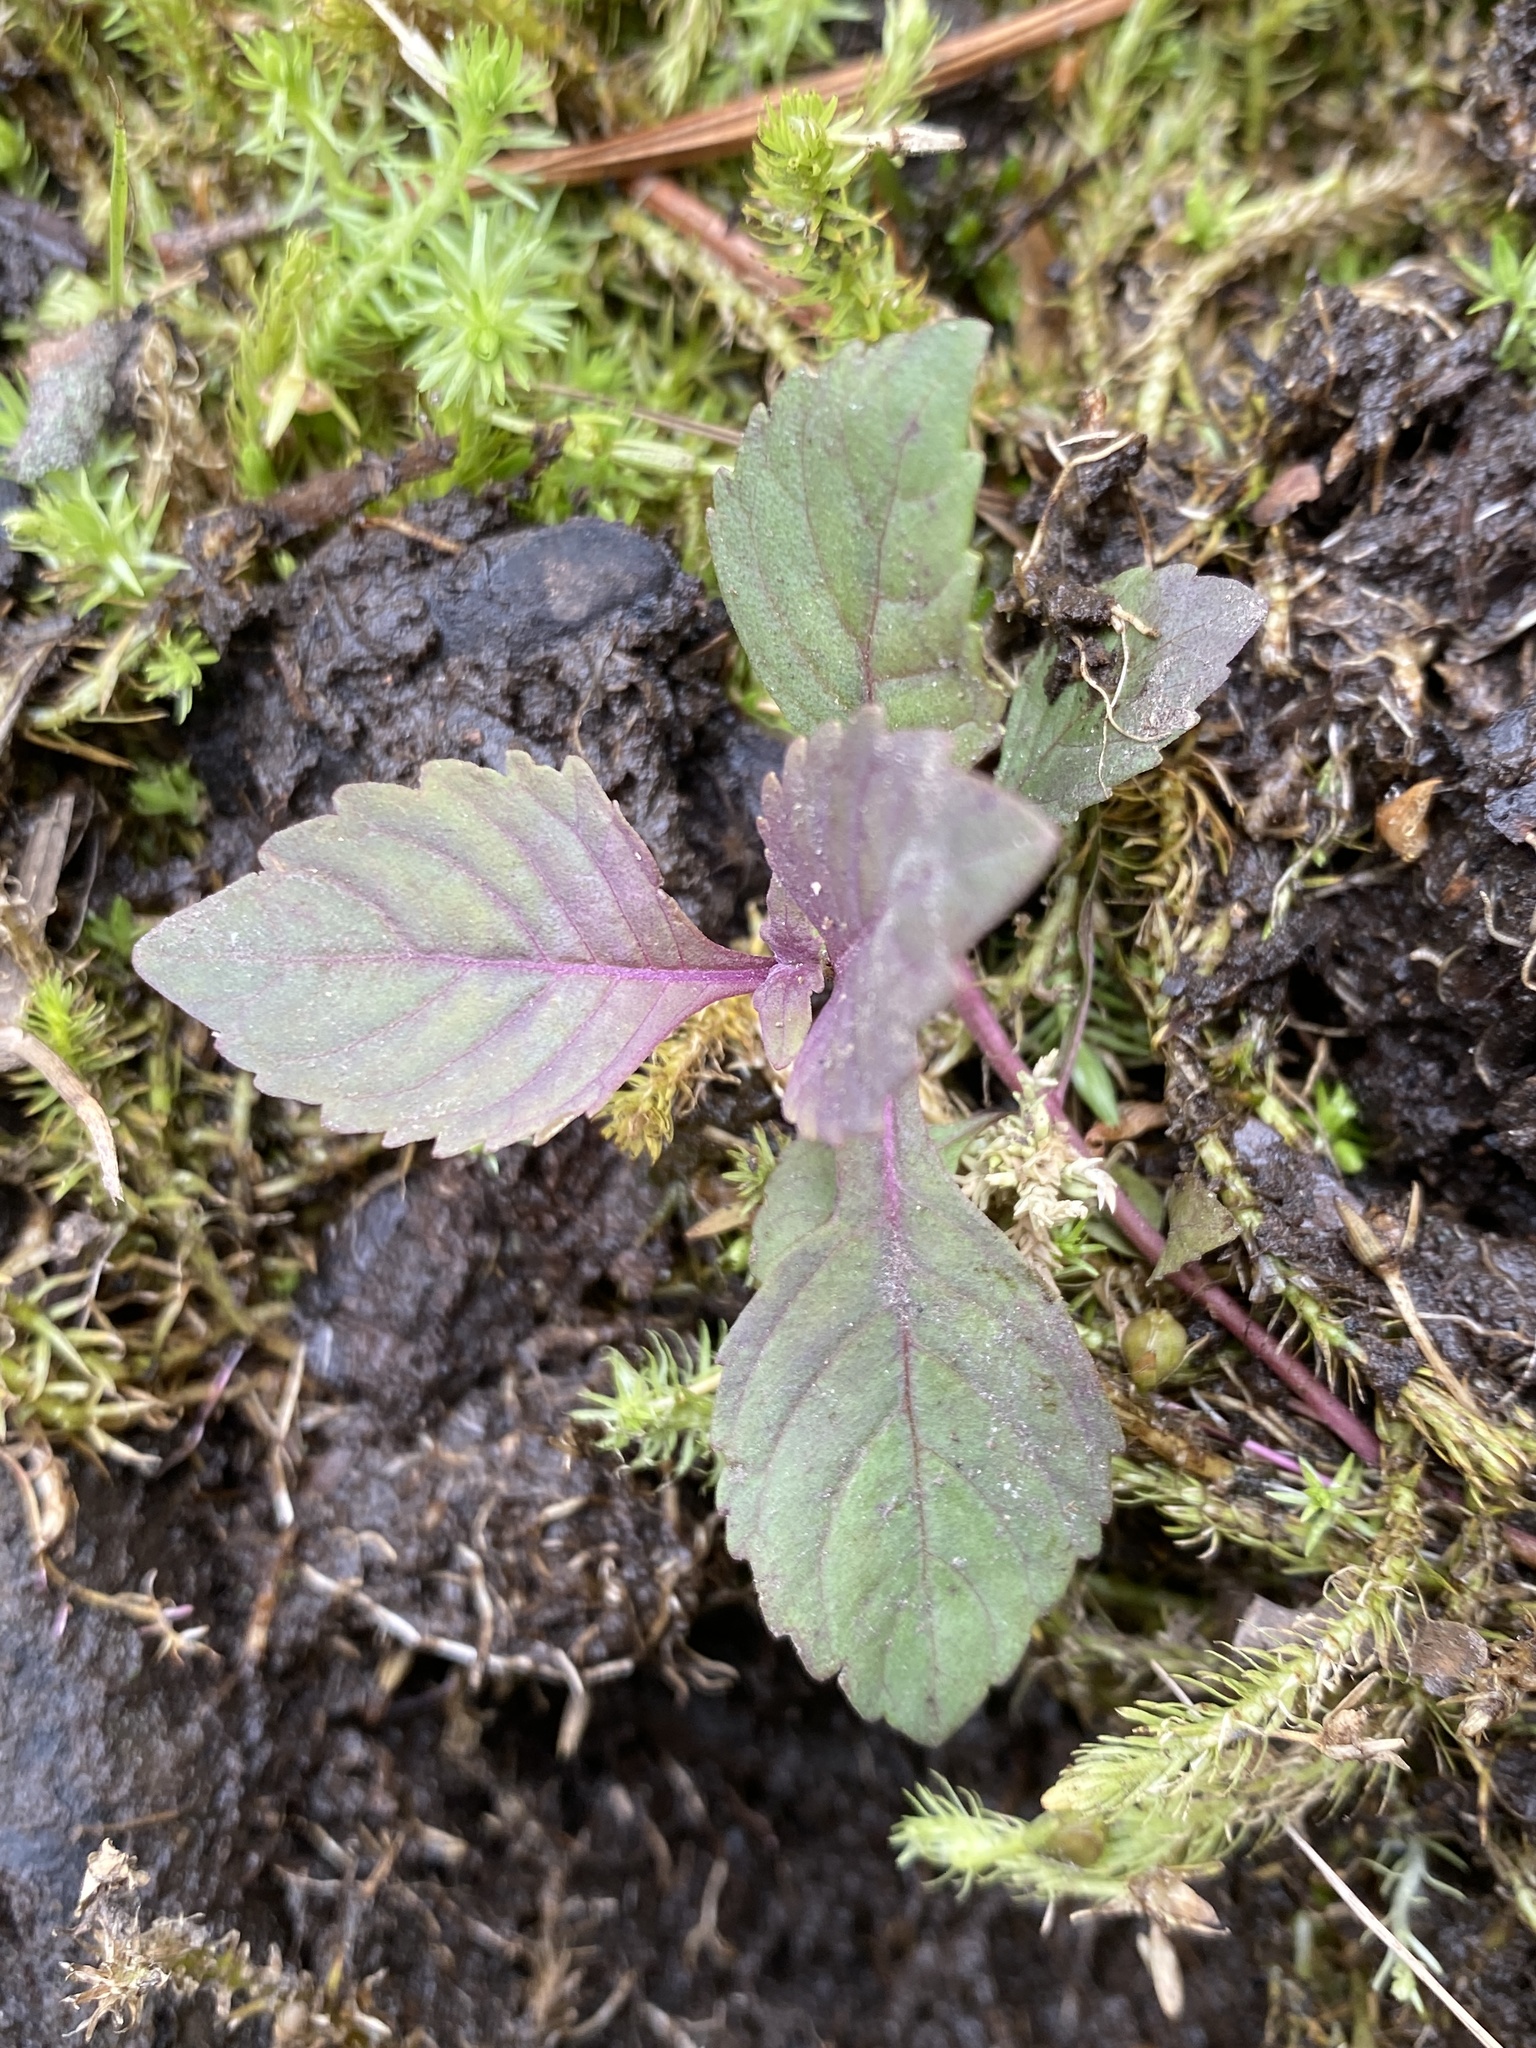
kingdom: Plantae
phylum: Tracheophyta
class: Magnoliopsida
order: Lamiales
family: Lamiaceae
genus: Lycopus
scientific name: Lycopus cokeri
